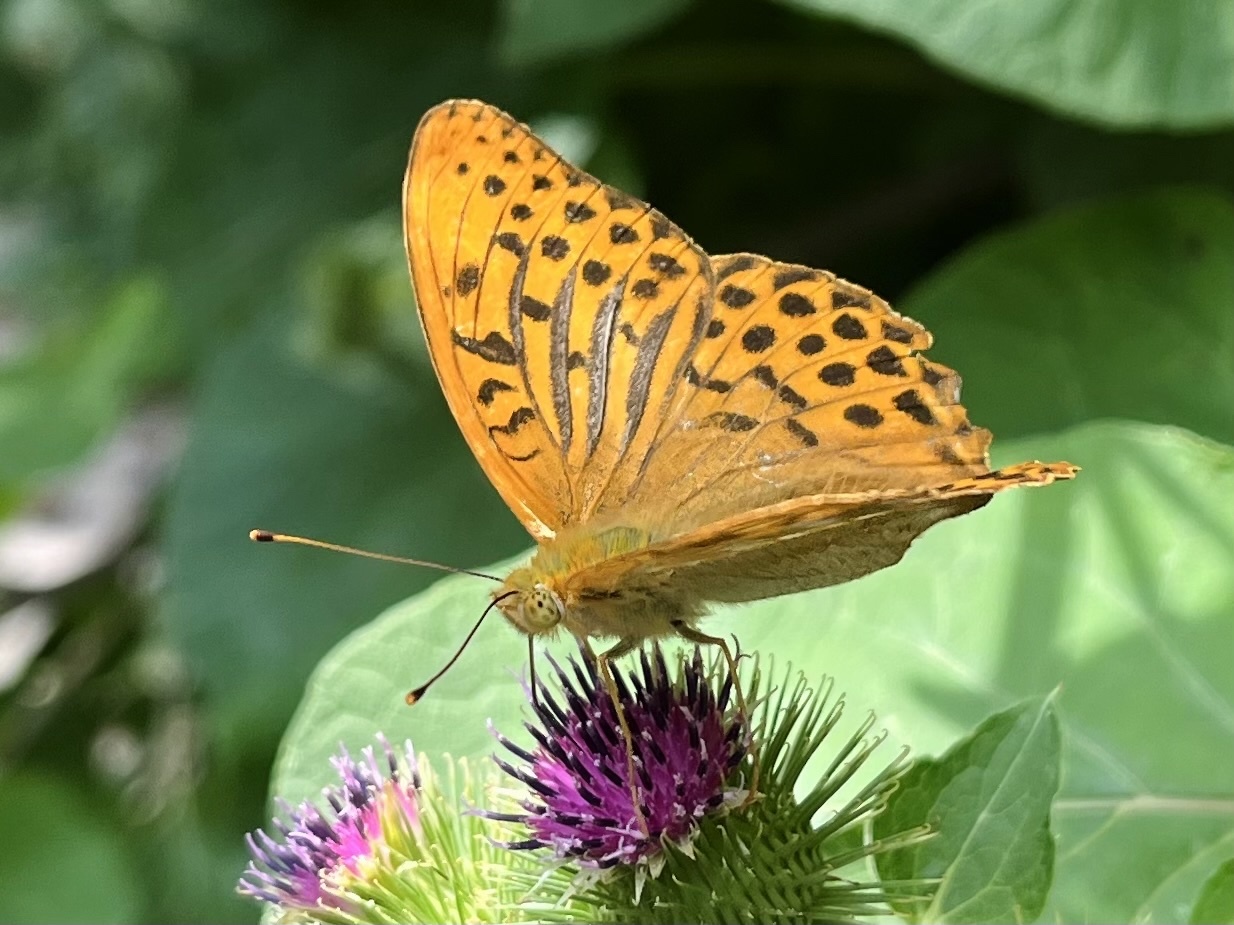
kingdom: Animalia
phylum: Arthropoda
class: Insecta
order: Lepidoptera
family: Nymphalidae
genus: Argynnis
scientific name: Argynnis paphia
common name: Silver-washed fritillary
